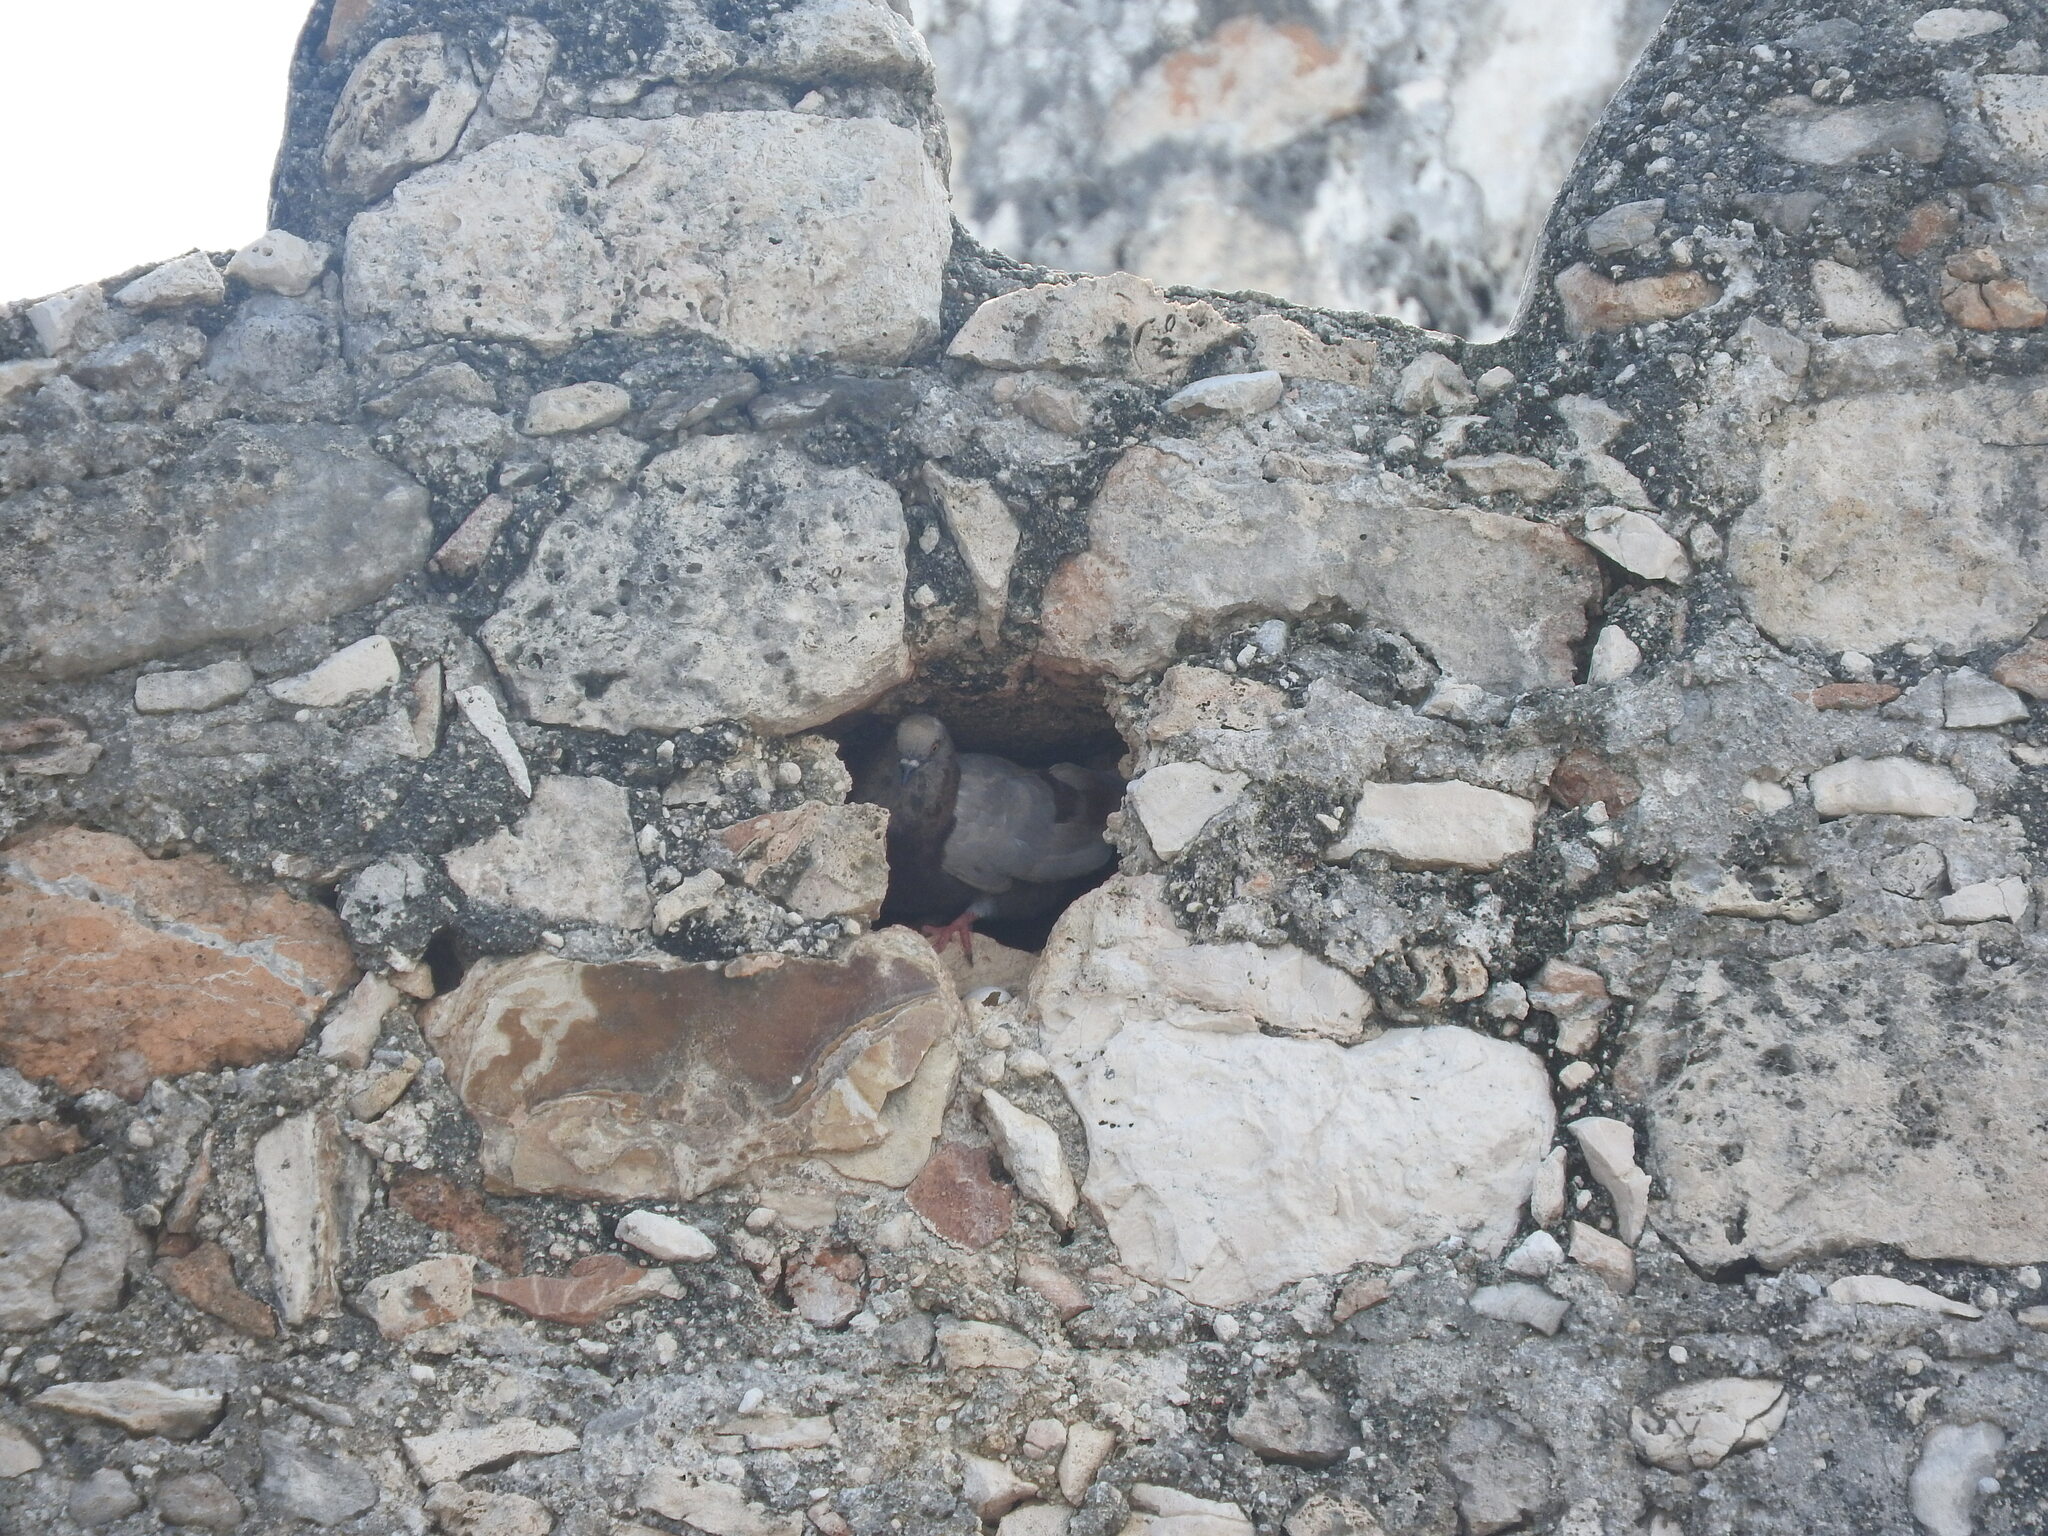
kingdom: Animalia
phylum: Chordata
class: Aves
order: Columbiformes
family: Columbidae
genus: Columba
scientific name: Columba livia
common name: Rock pigeon
